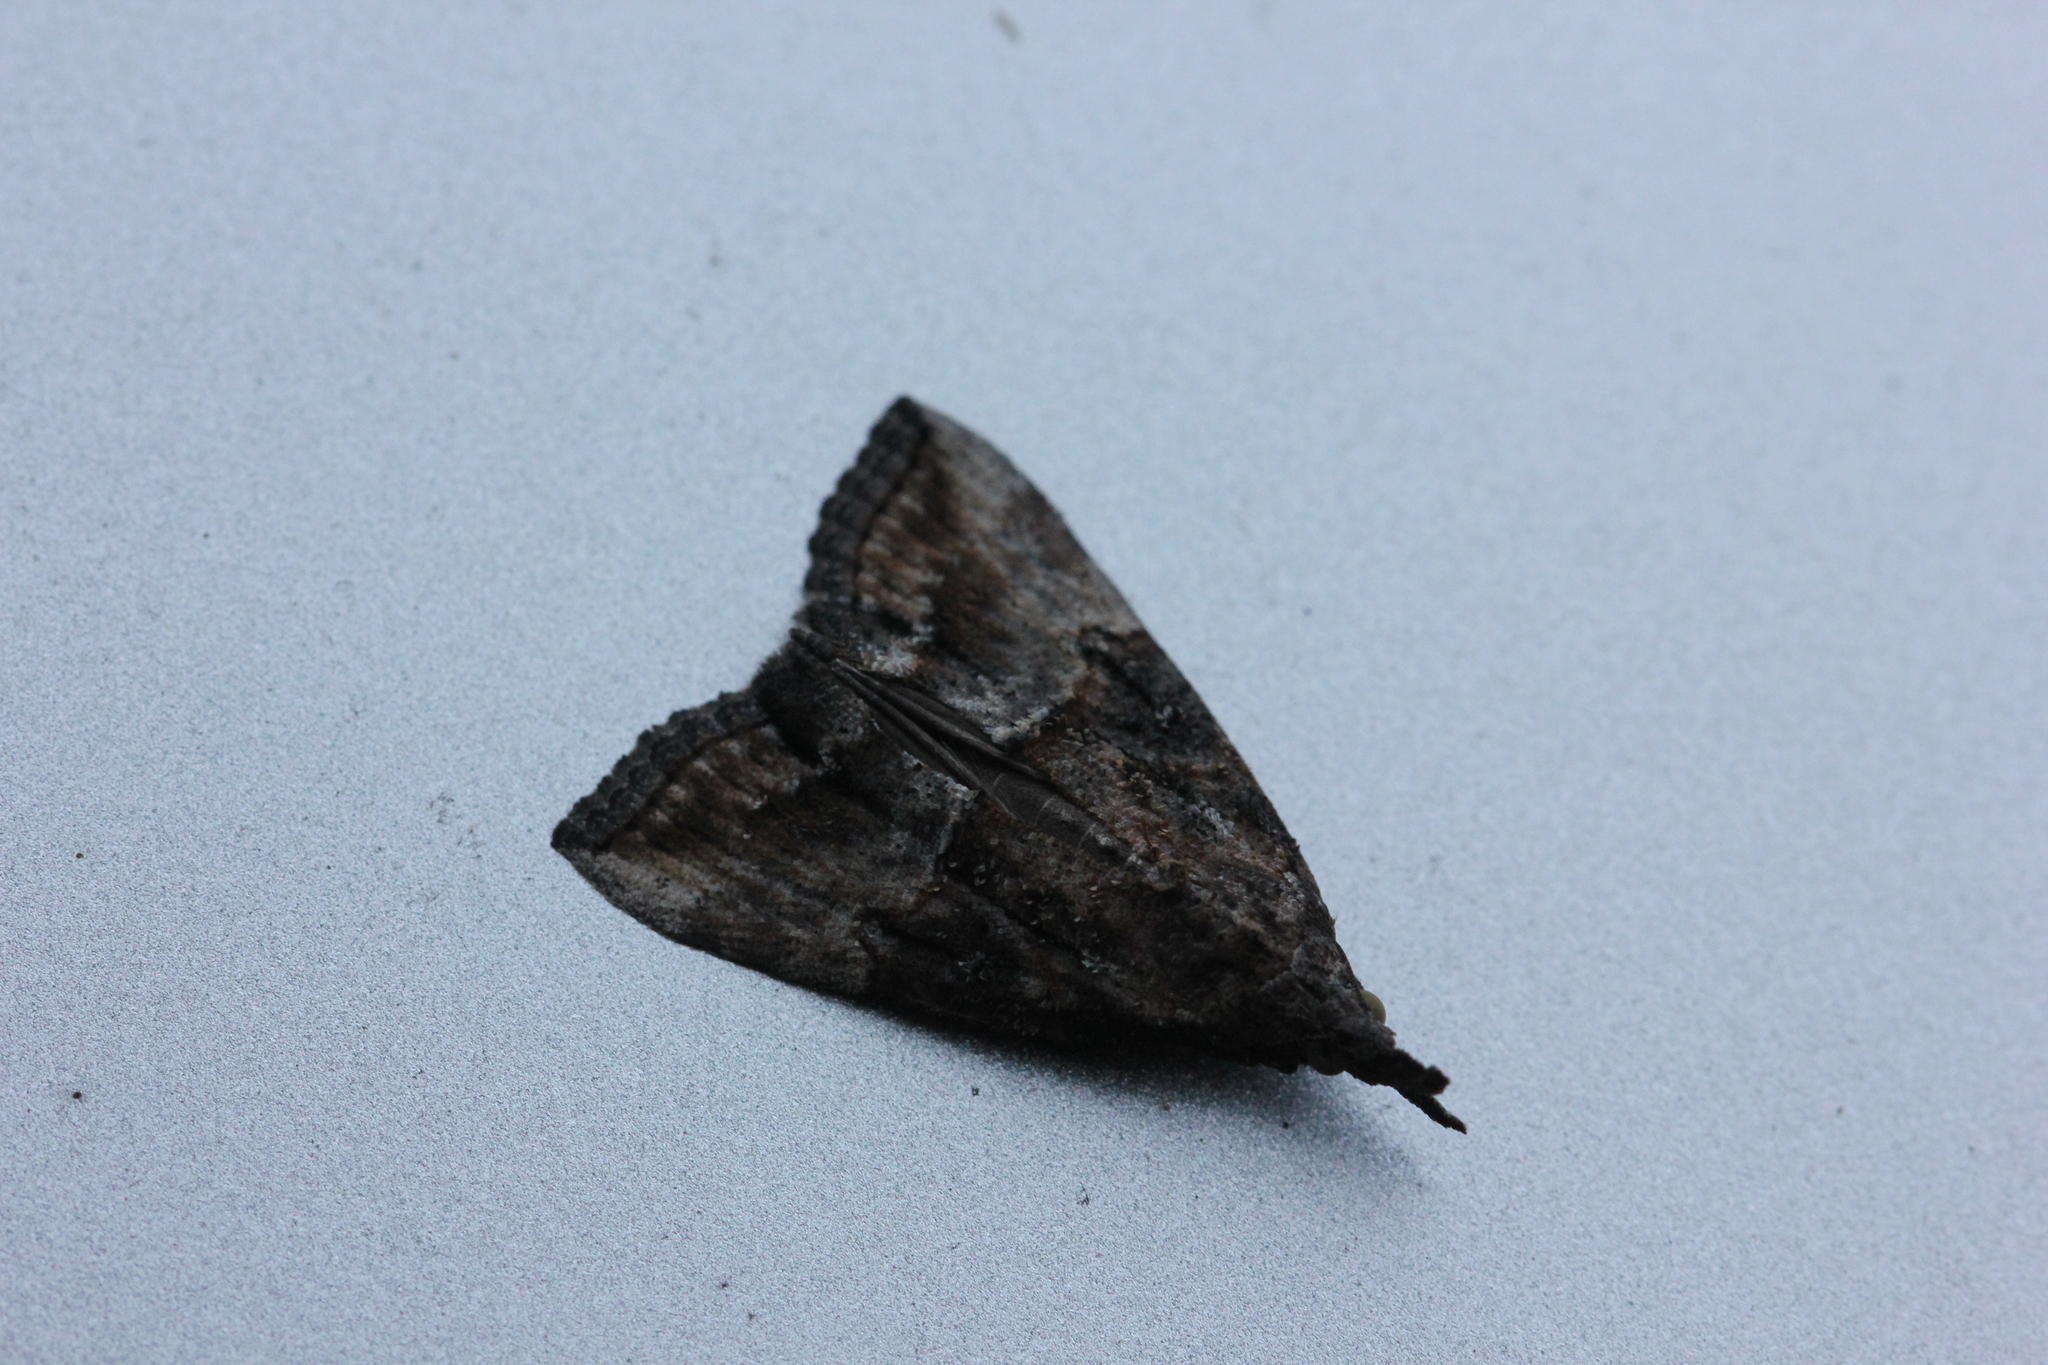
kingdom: Animalia
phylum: Arthropoda
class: Insecta
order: Lepidoptera
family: Erebidae
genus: Hypena
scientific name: Hypena scabra
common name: Green cloverworm
